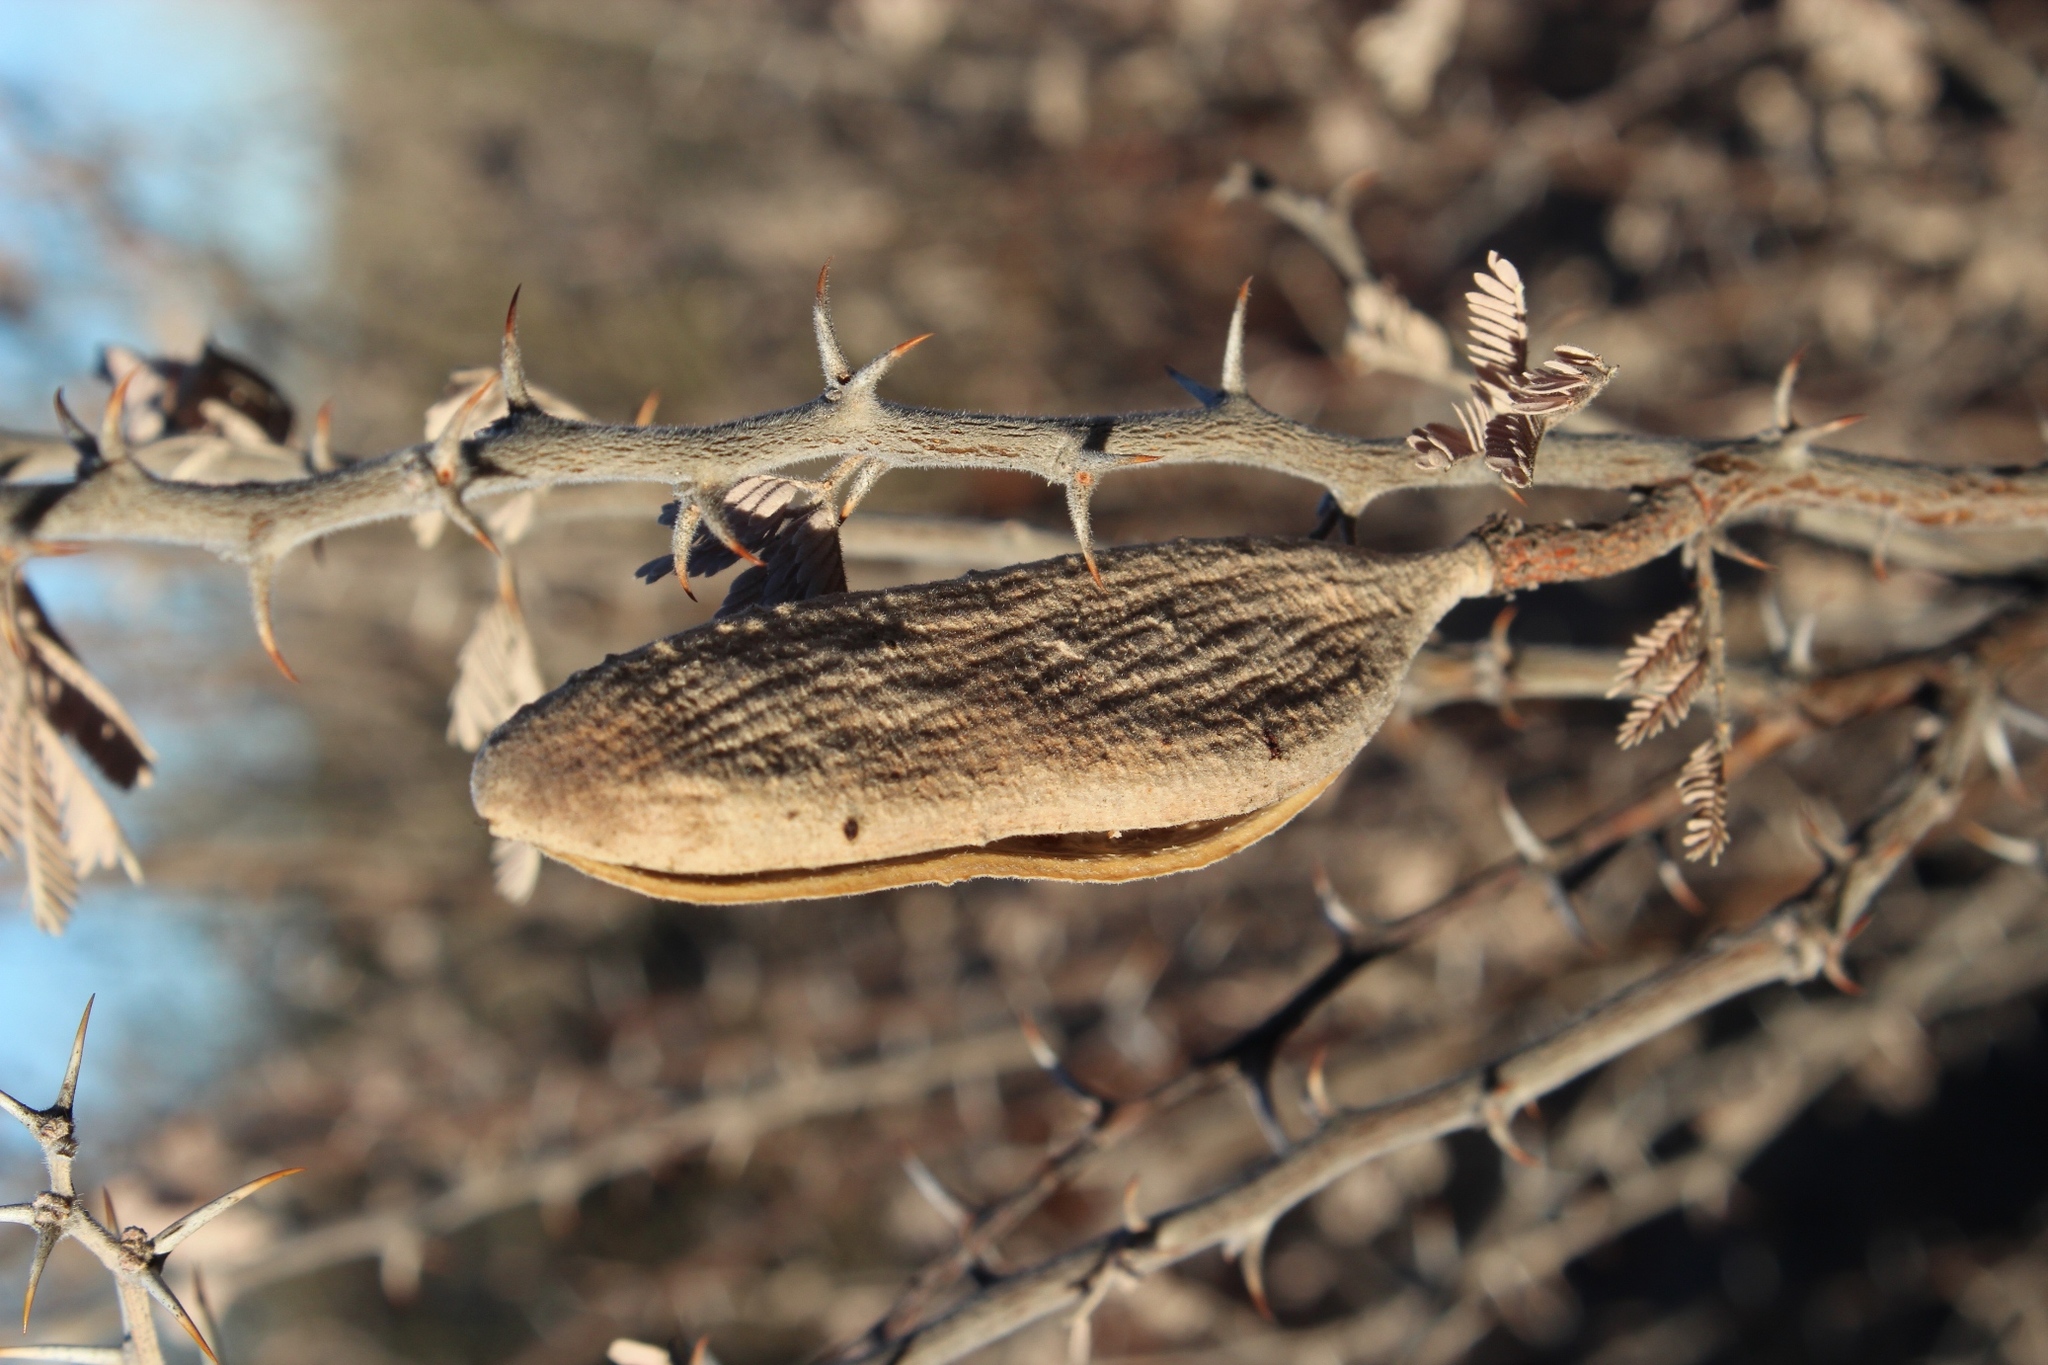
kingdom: Plantae
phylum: Tracheophyta
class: Magnoliopsida
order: Fabales
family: Fabaceae
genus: Vachellia
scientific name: Vachellia hebeclada
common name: Candle thorn
